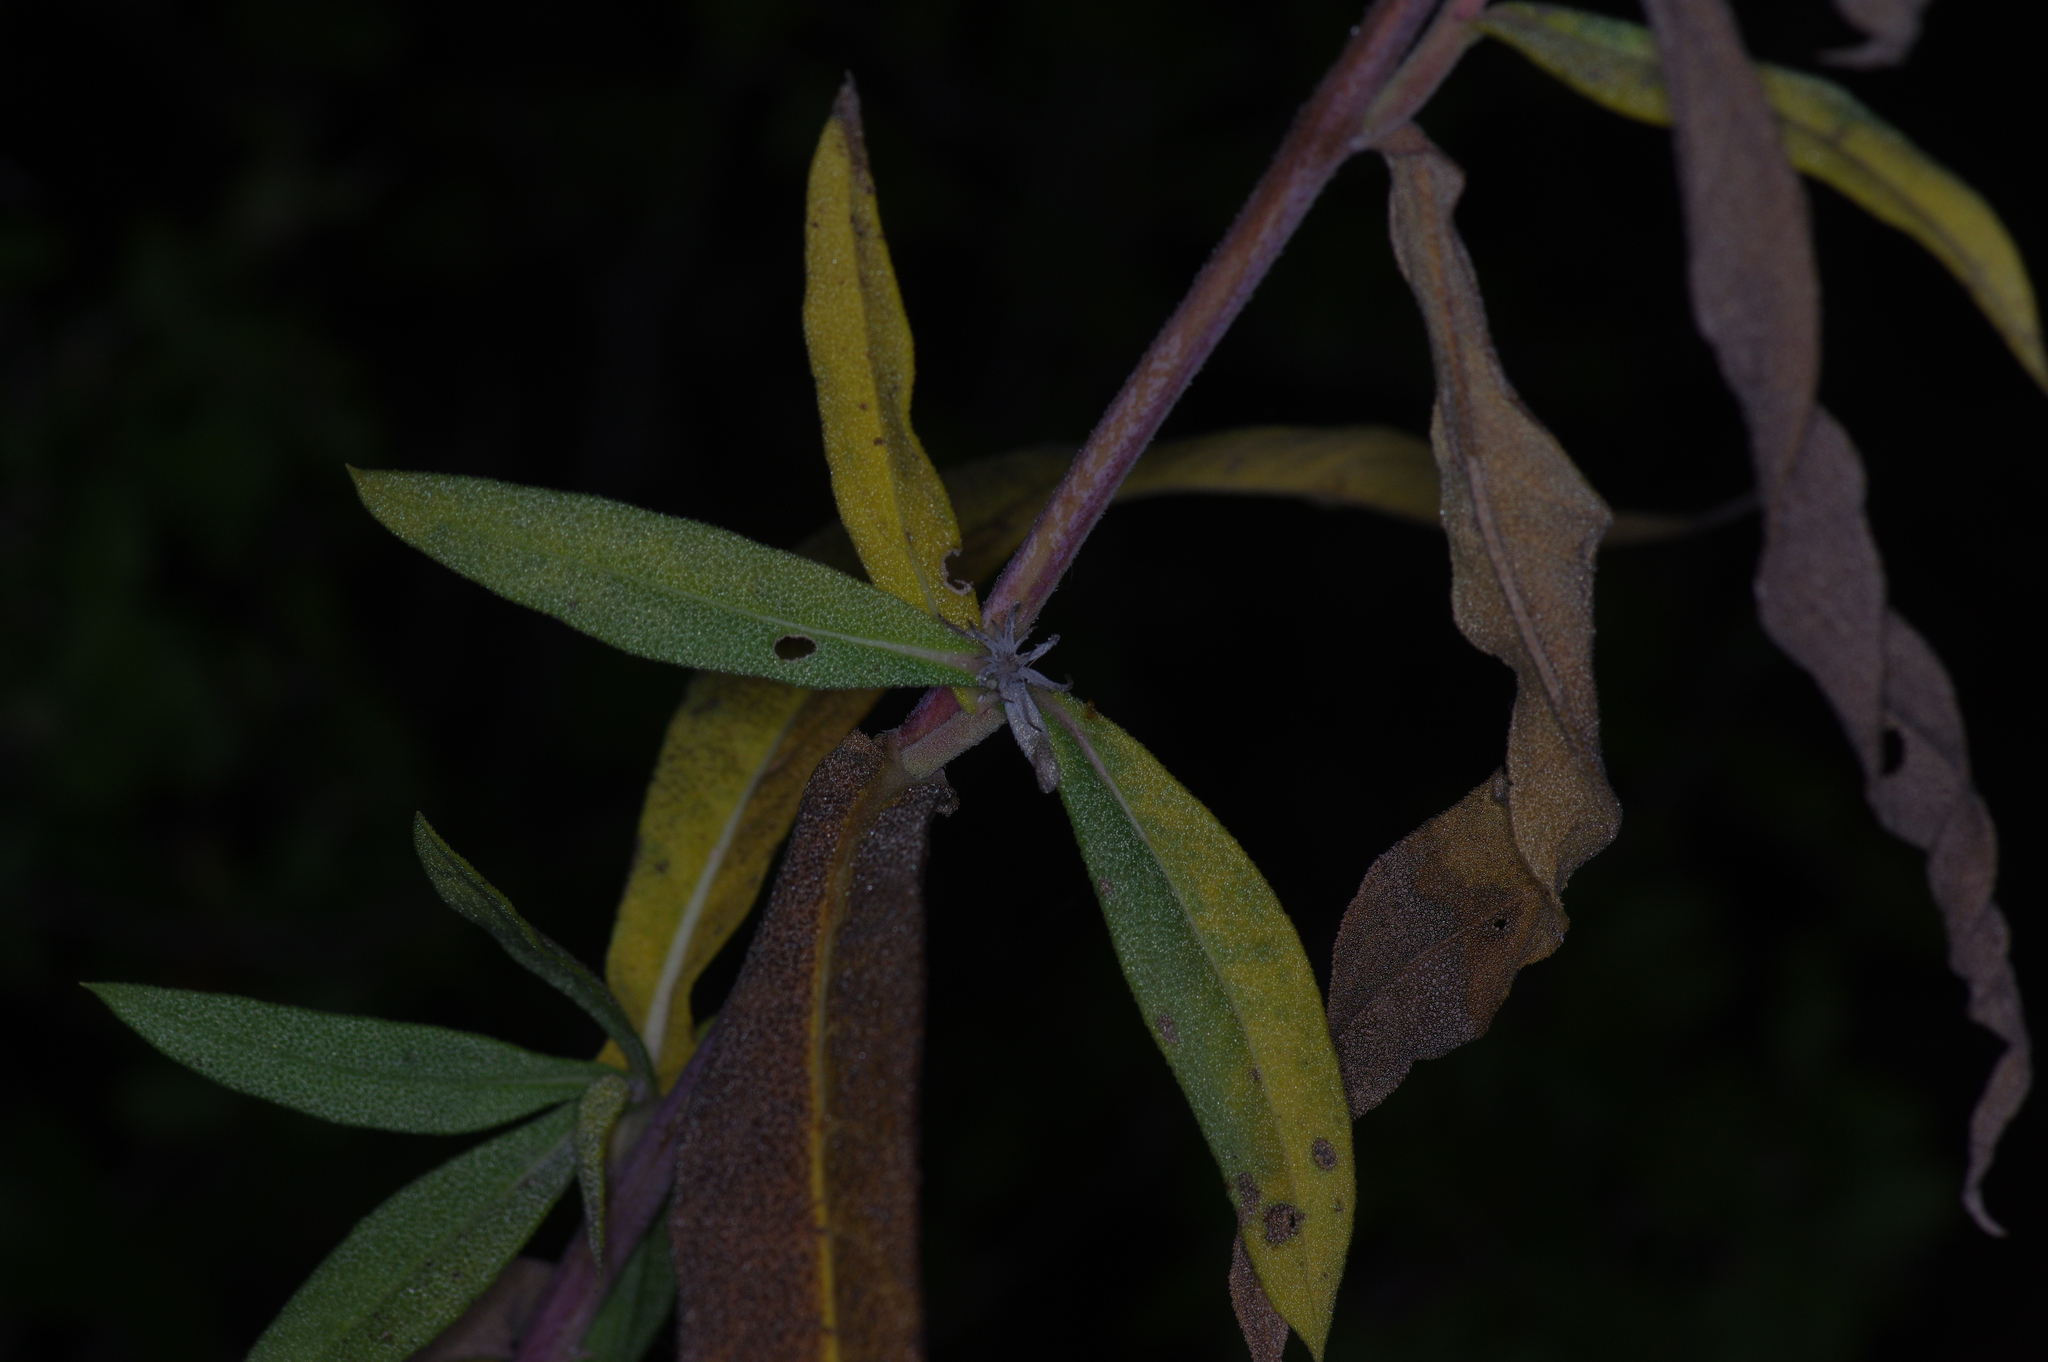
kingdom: Plantae
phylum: Tracheophyta
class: Magnoliopsida
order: Asterales
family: Asteraceae
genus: Helianthus
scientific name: Helianthus maximiliani
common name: Maximilian's sunflower
